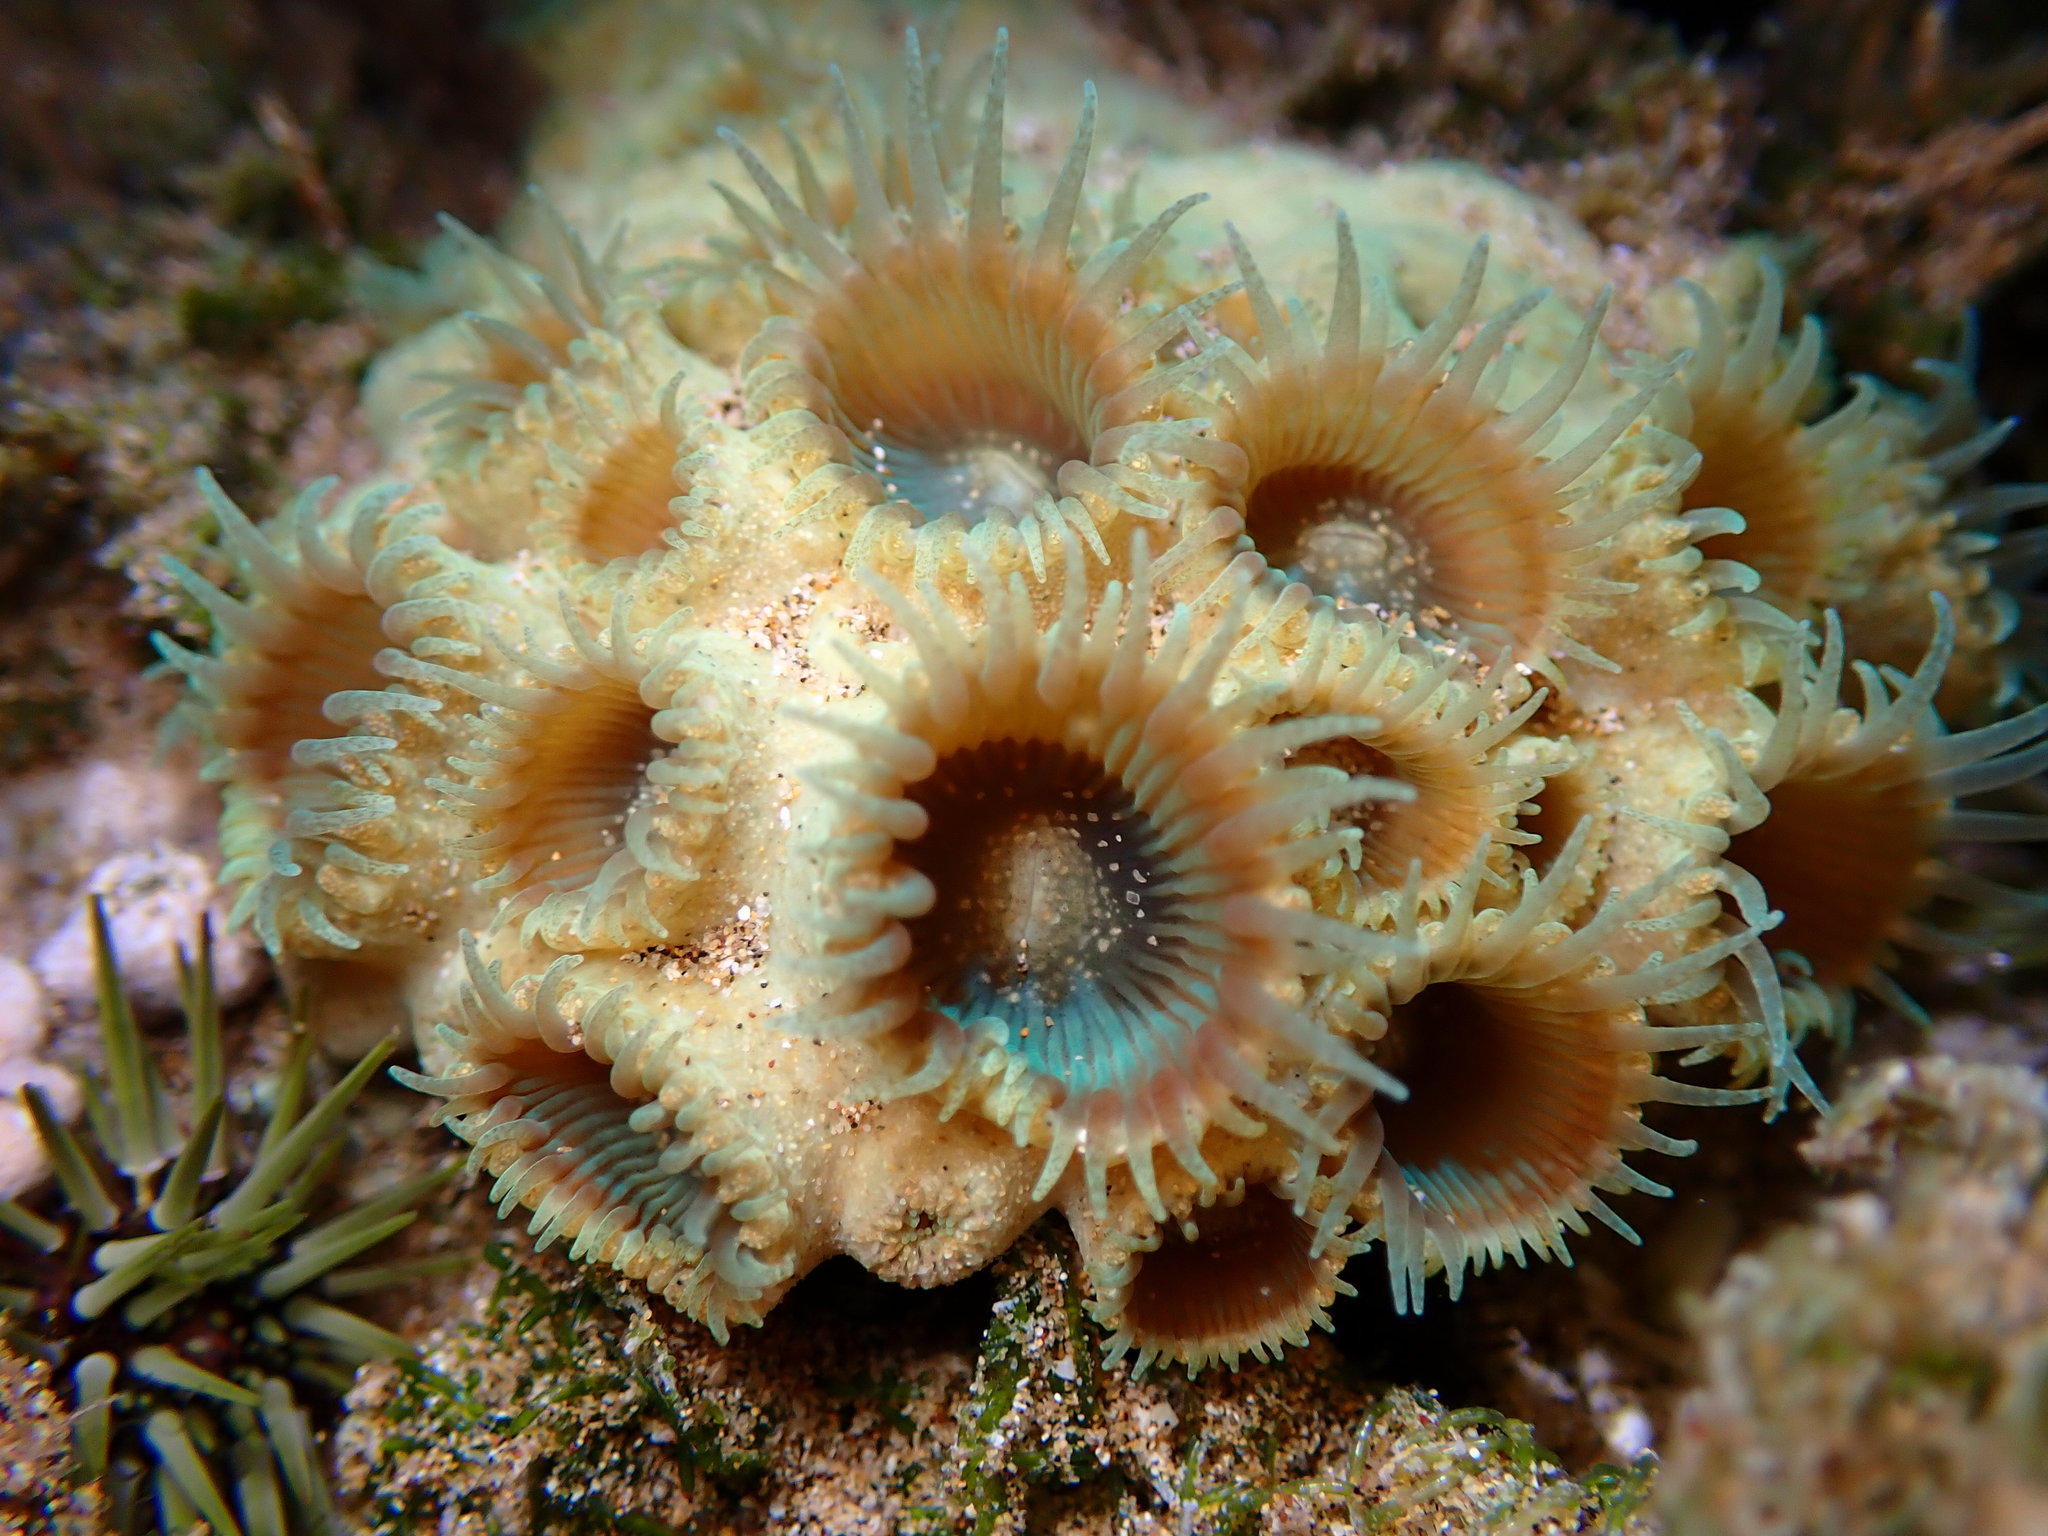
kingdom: Animalia
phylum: Cnidaria
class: Anthozoa
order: Zoantharia
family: Sphenopidae
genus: Palythoa
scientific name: Palythoa tuberculosa
